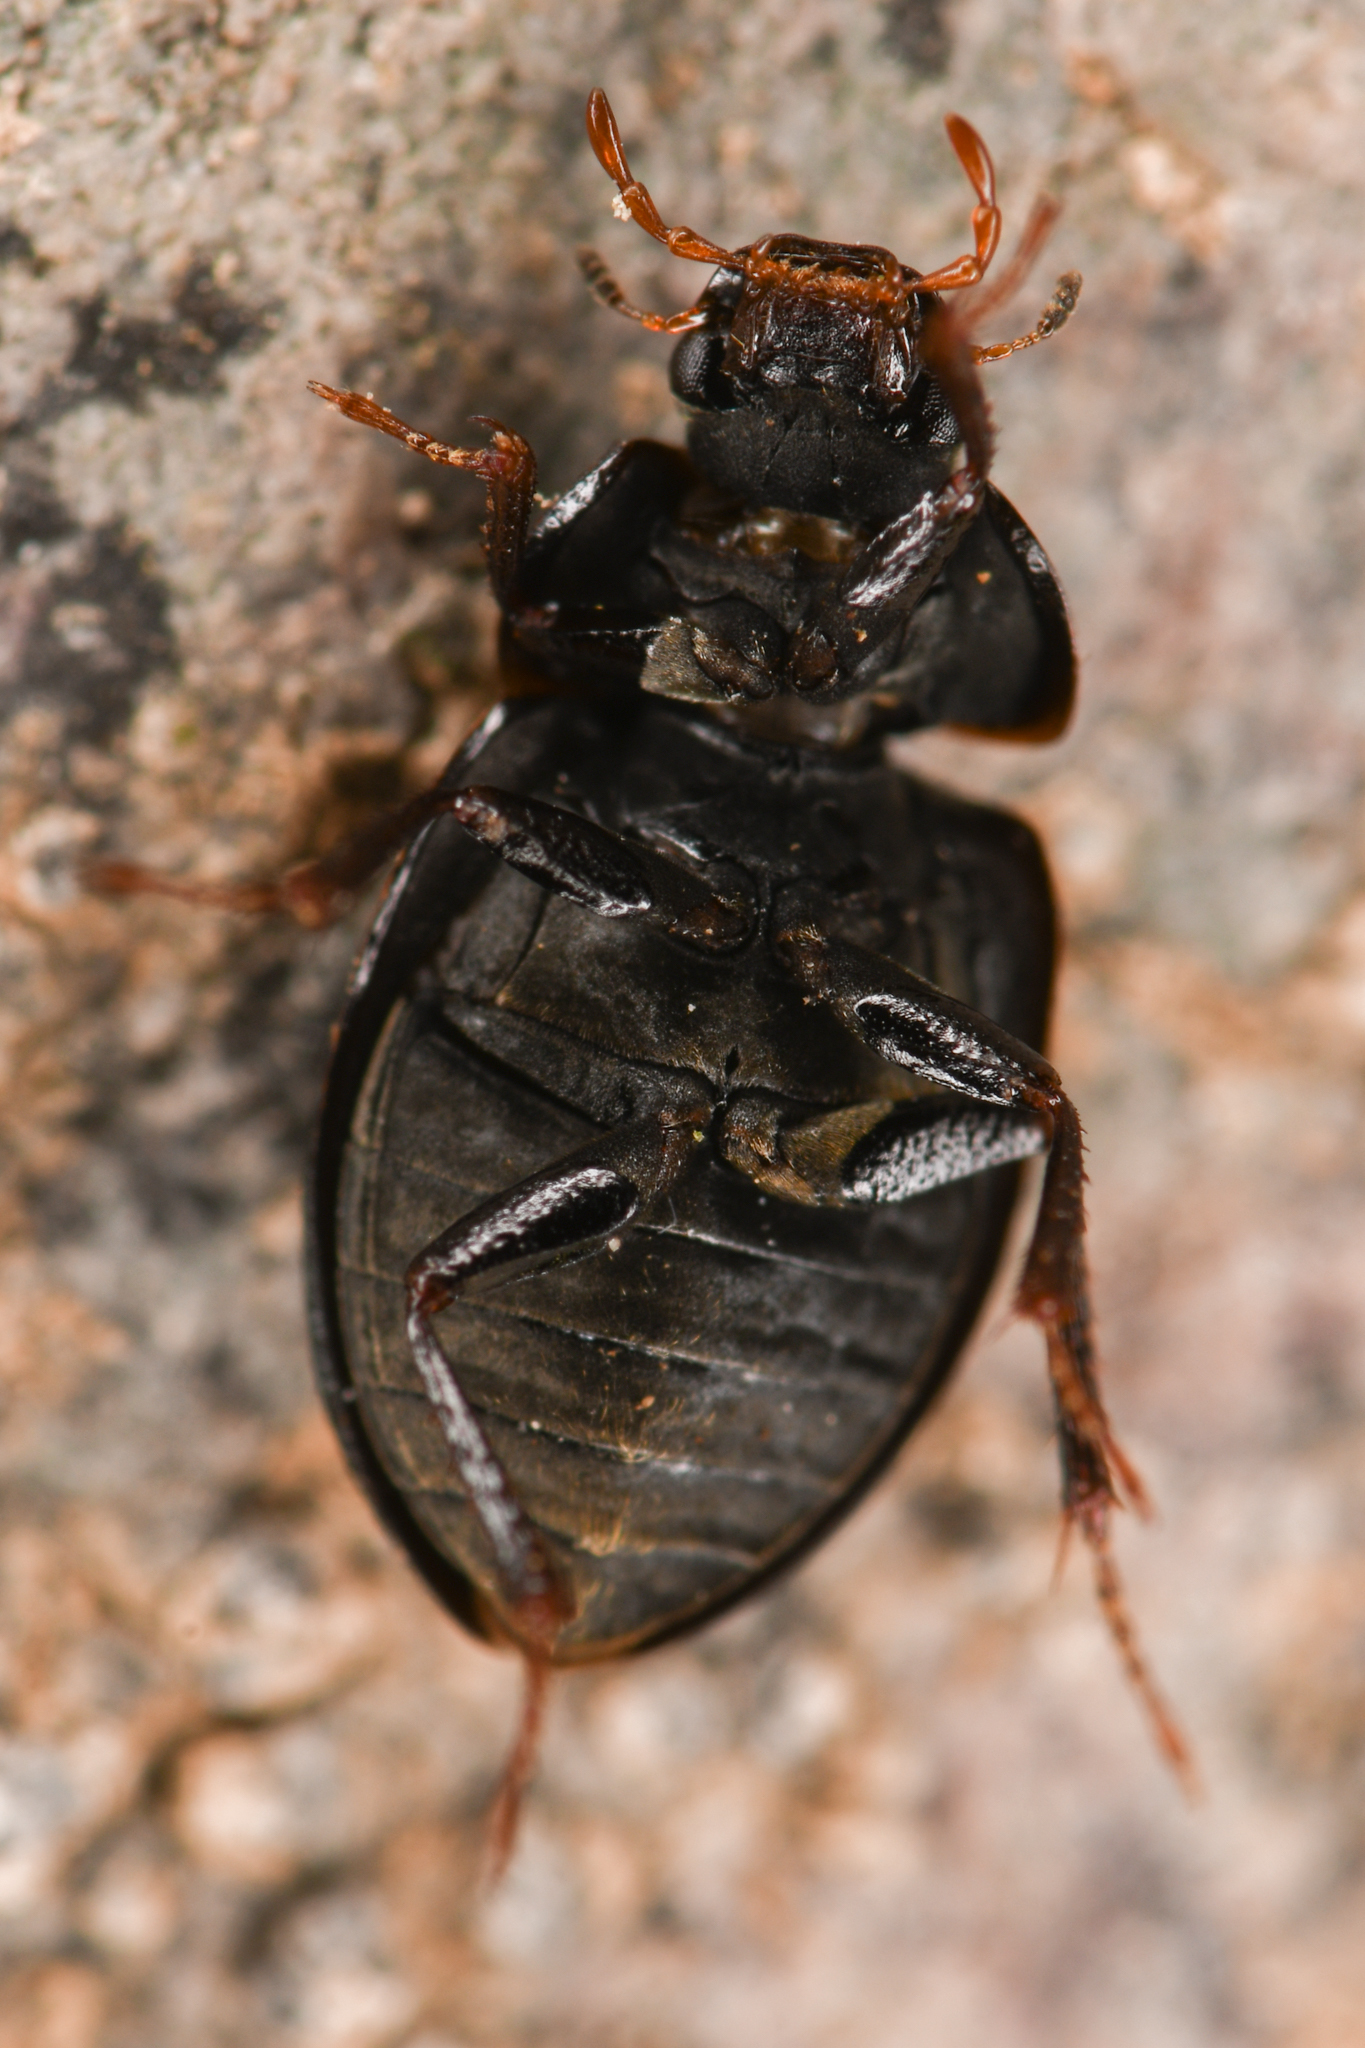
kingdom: Animalia
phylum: Arthropoda
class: Insecta
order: Coleoptera
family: Hydrophilidae
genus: Ametor
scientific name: Ametor scabrosus
